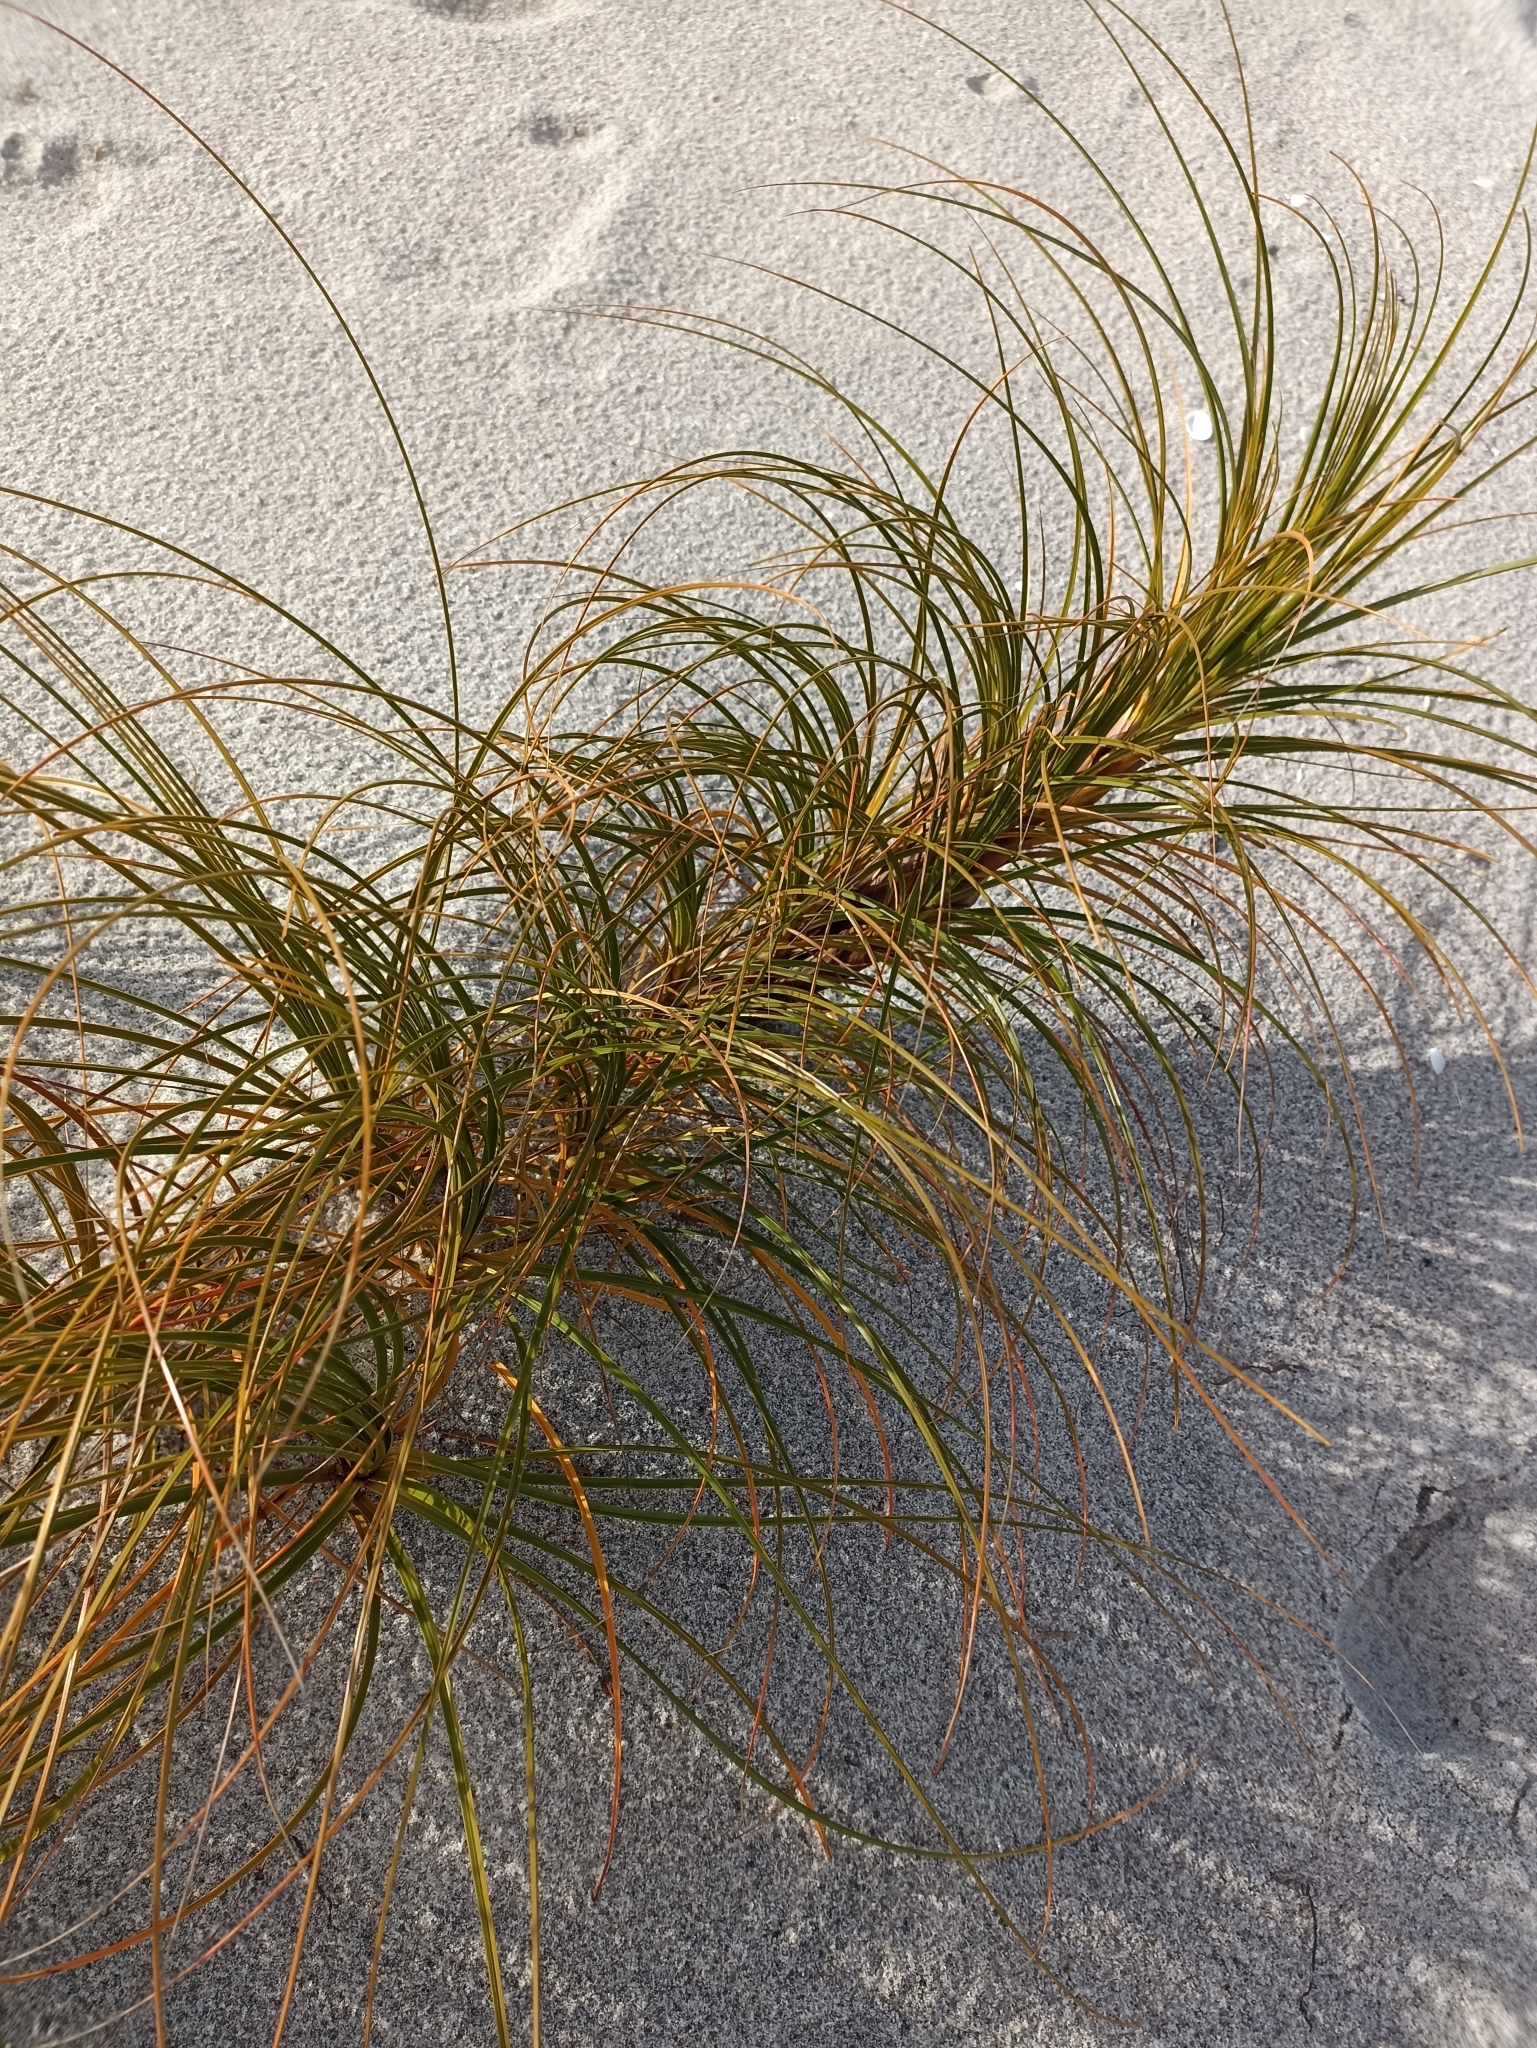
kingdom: Plantae
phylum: Tracheophyta
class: Liliopsida
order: Poales
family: Cyperaceae
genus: Ficinia
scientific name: Ficinia spiralis
